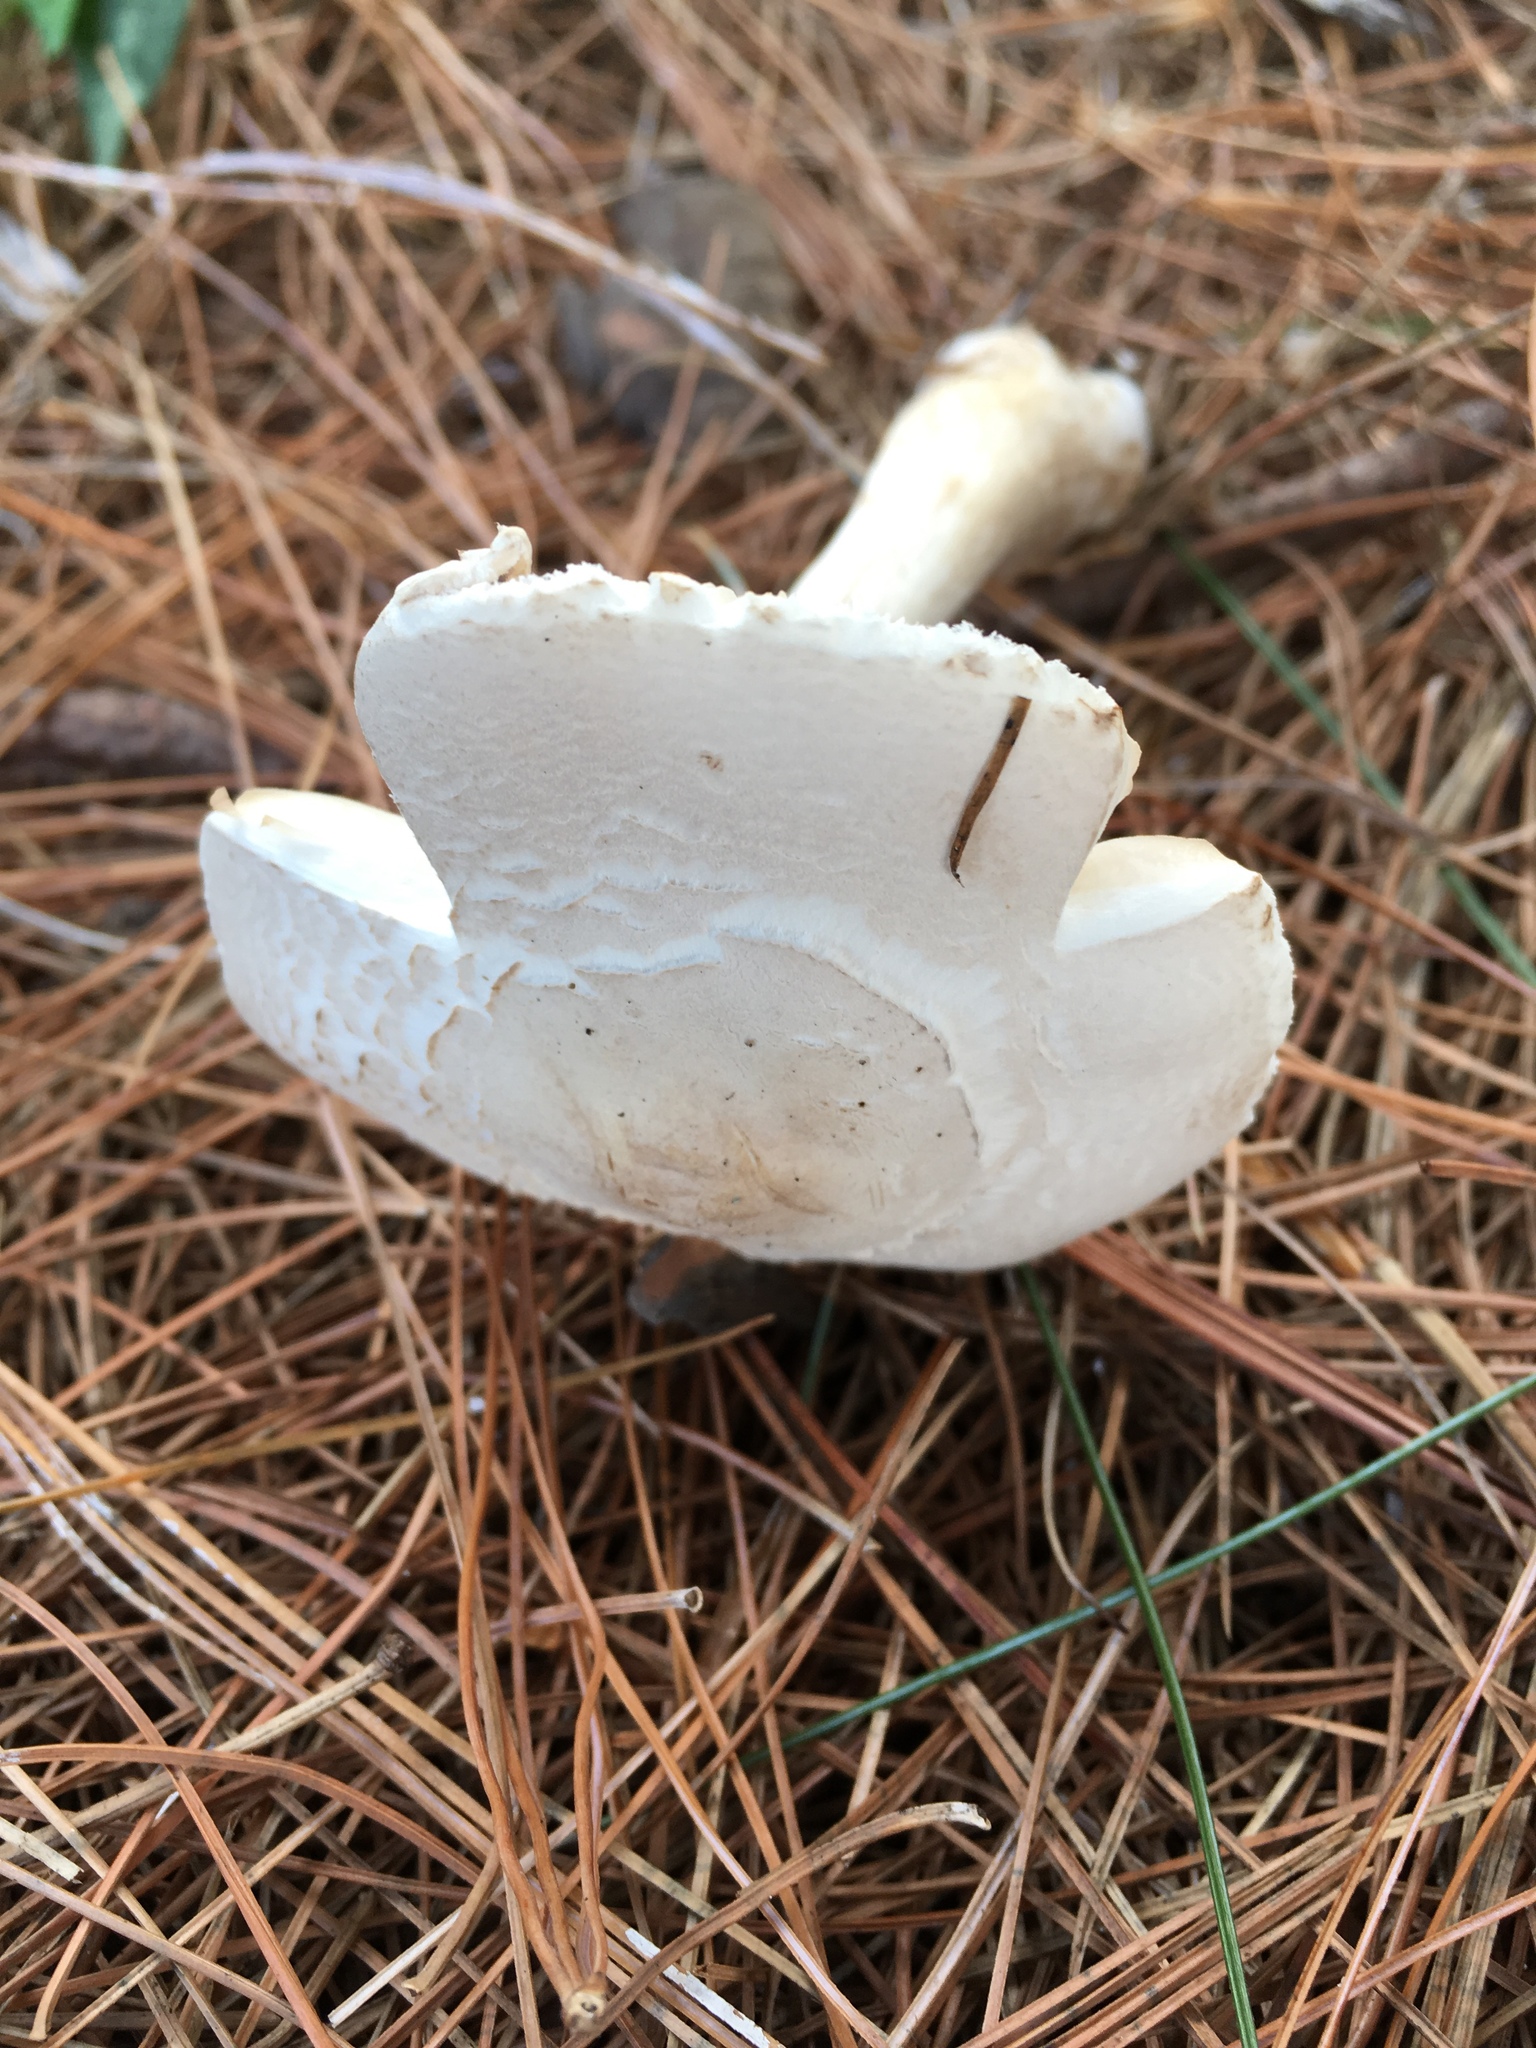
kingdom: Fungi
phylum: Basidiomycota
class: Agaricomycetes
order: Agaricales
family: Agaricaceae
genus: Leucoagaricus
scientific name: Leucoagaricus leucothites
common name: White dapperling
